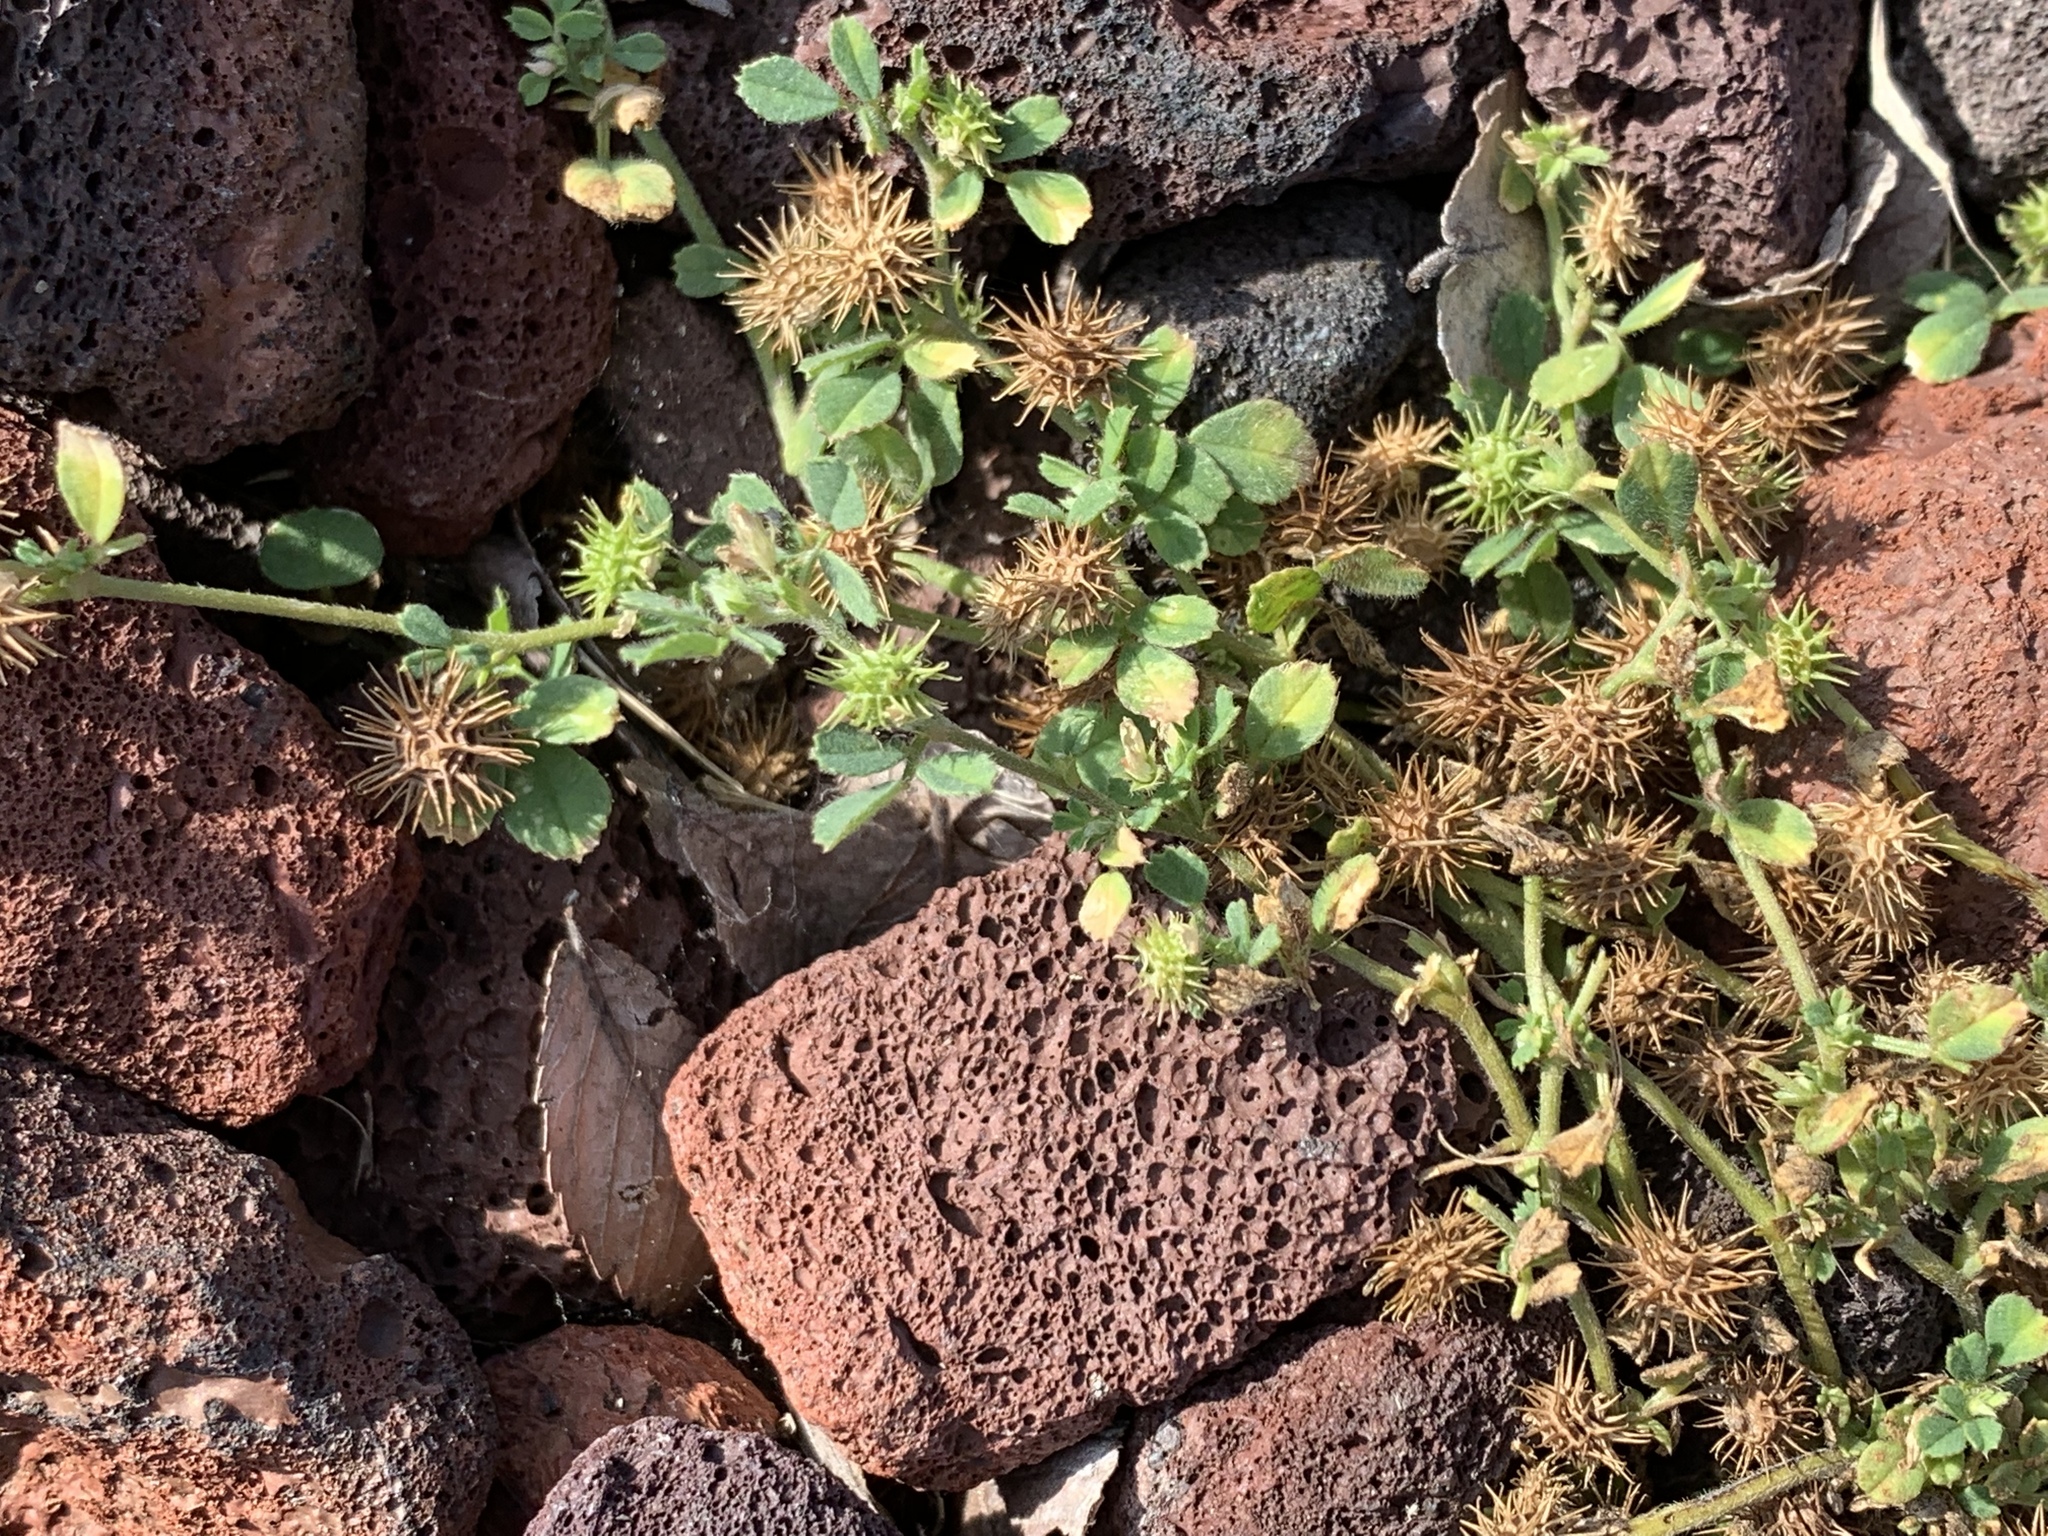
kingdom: Plantae
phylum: Tracheophyta
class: Magnoliopsida
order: Fabales
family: Fabaceae
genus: Medicago
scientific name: Medicago minima
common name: Little bur-clover
